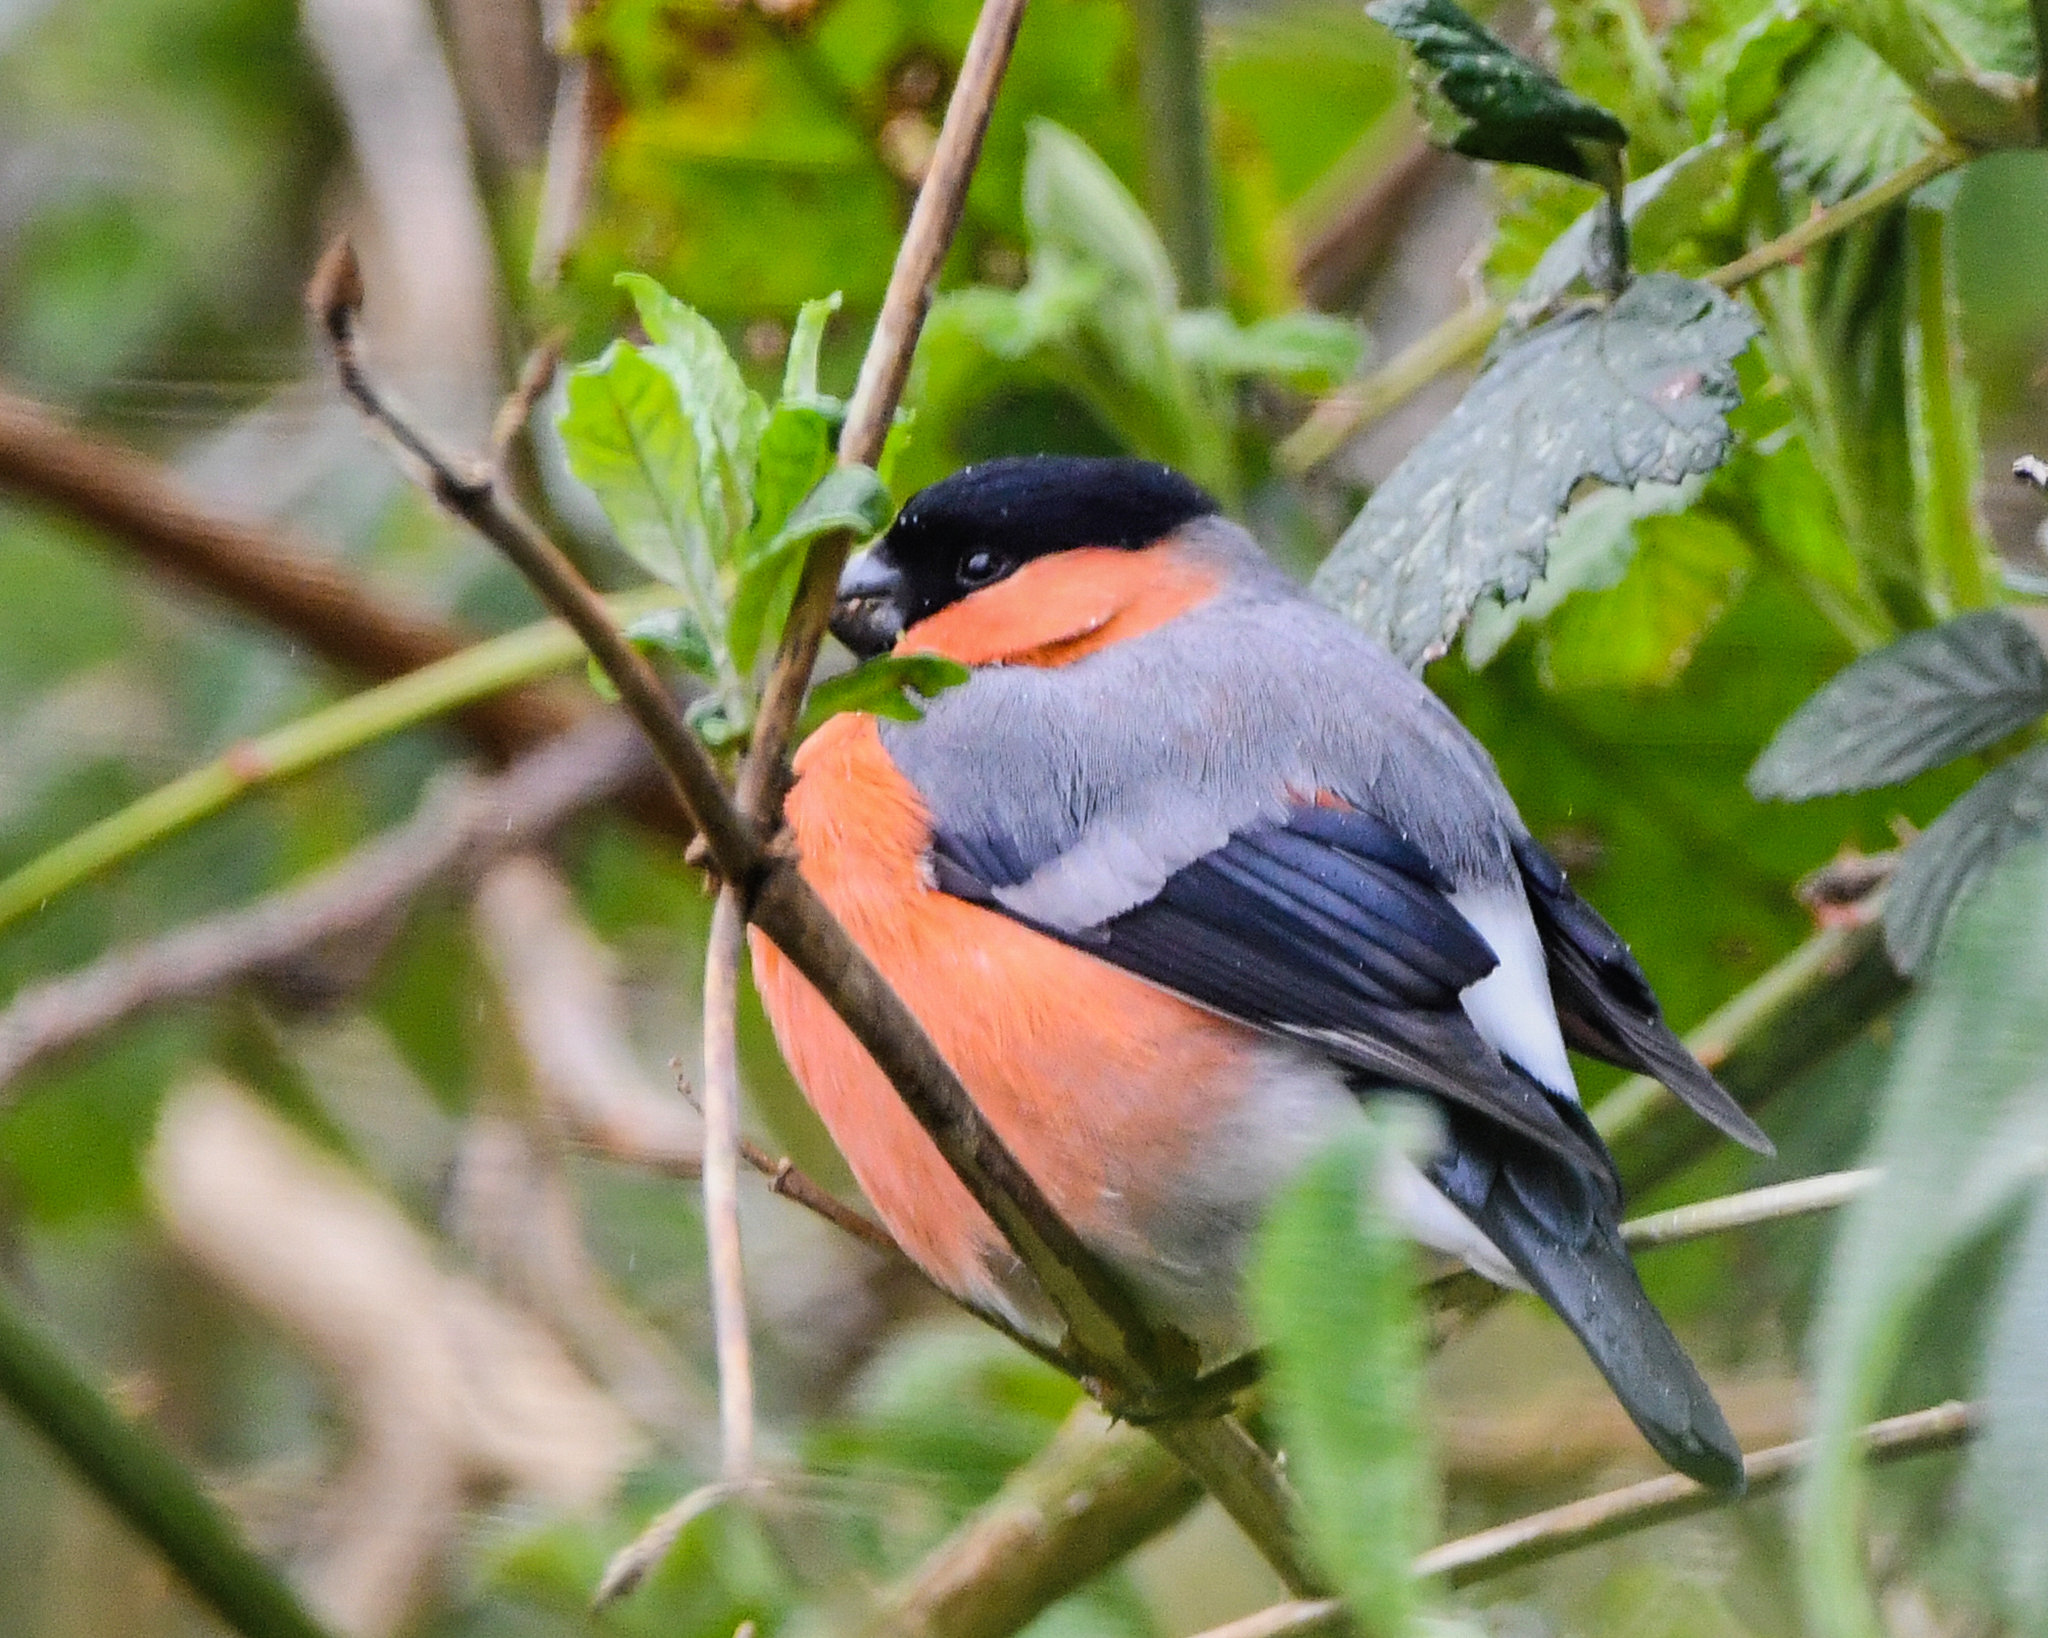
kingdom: Animalia
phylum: Chordata
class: Aves
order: Passeriformes
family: Fringillidae
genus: Pyrrhula
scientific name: Pyrrhula pyrrhula
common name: Eurasian bullfinch
